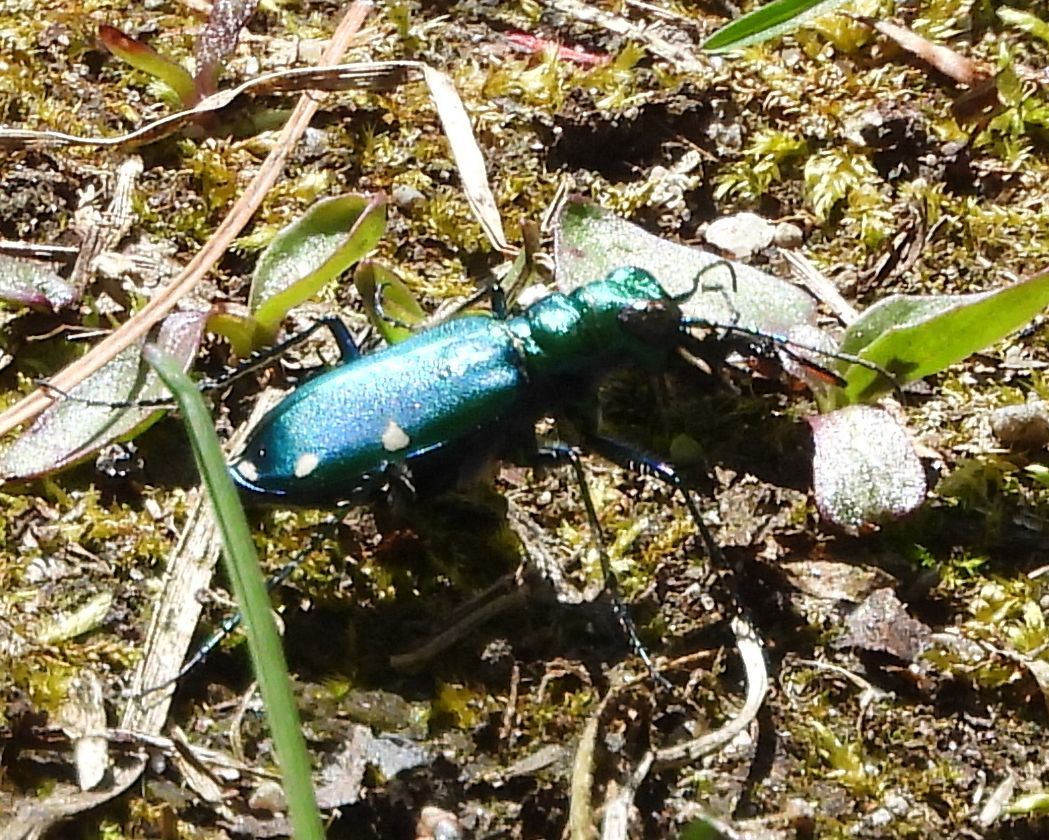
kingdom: Animalia
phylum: Arthropoda
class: Insecta
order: Coleoptera
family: Carabidae
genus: Cicindela
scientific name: Cicindela sexguttata
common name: Six-spotted tiger beetle
